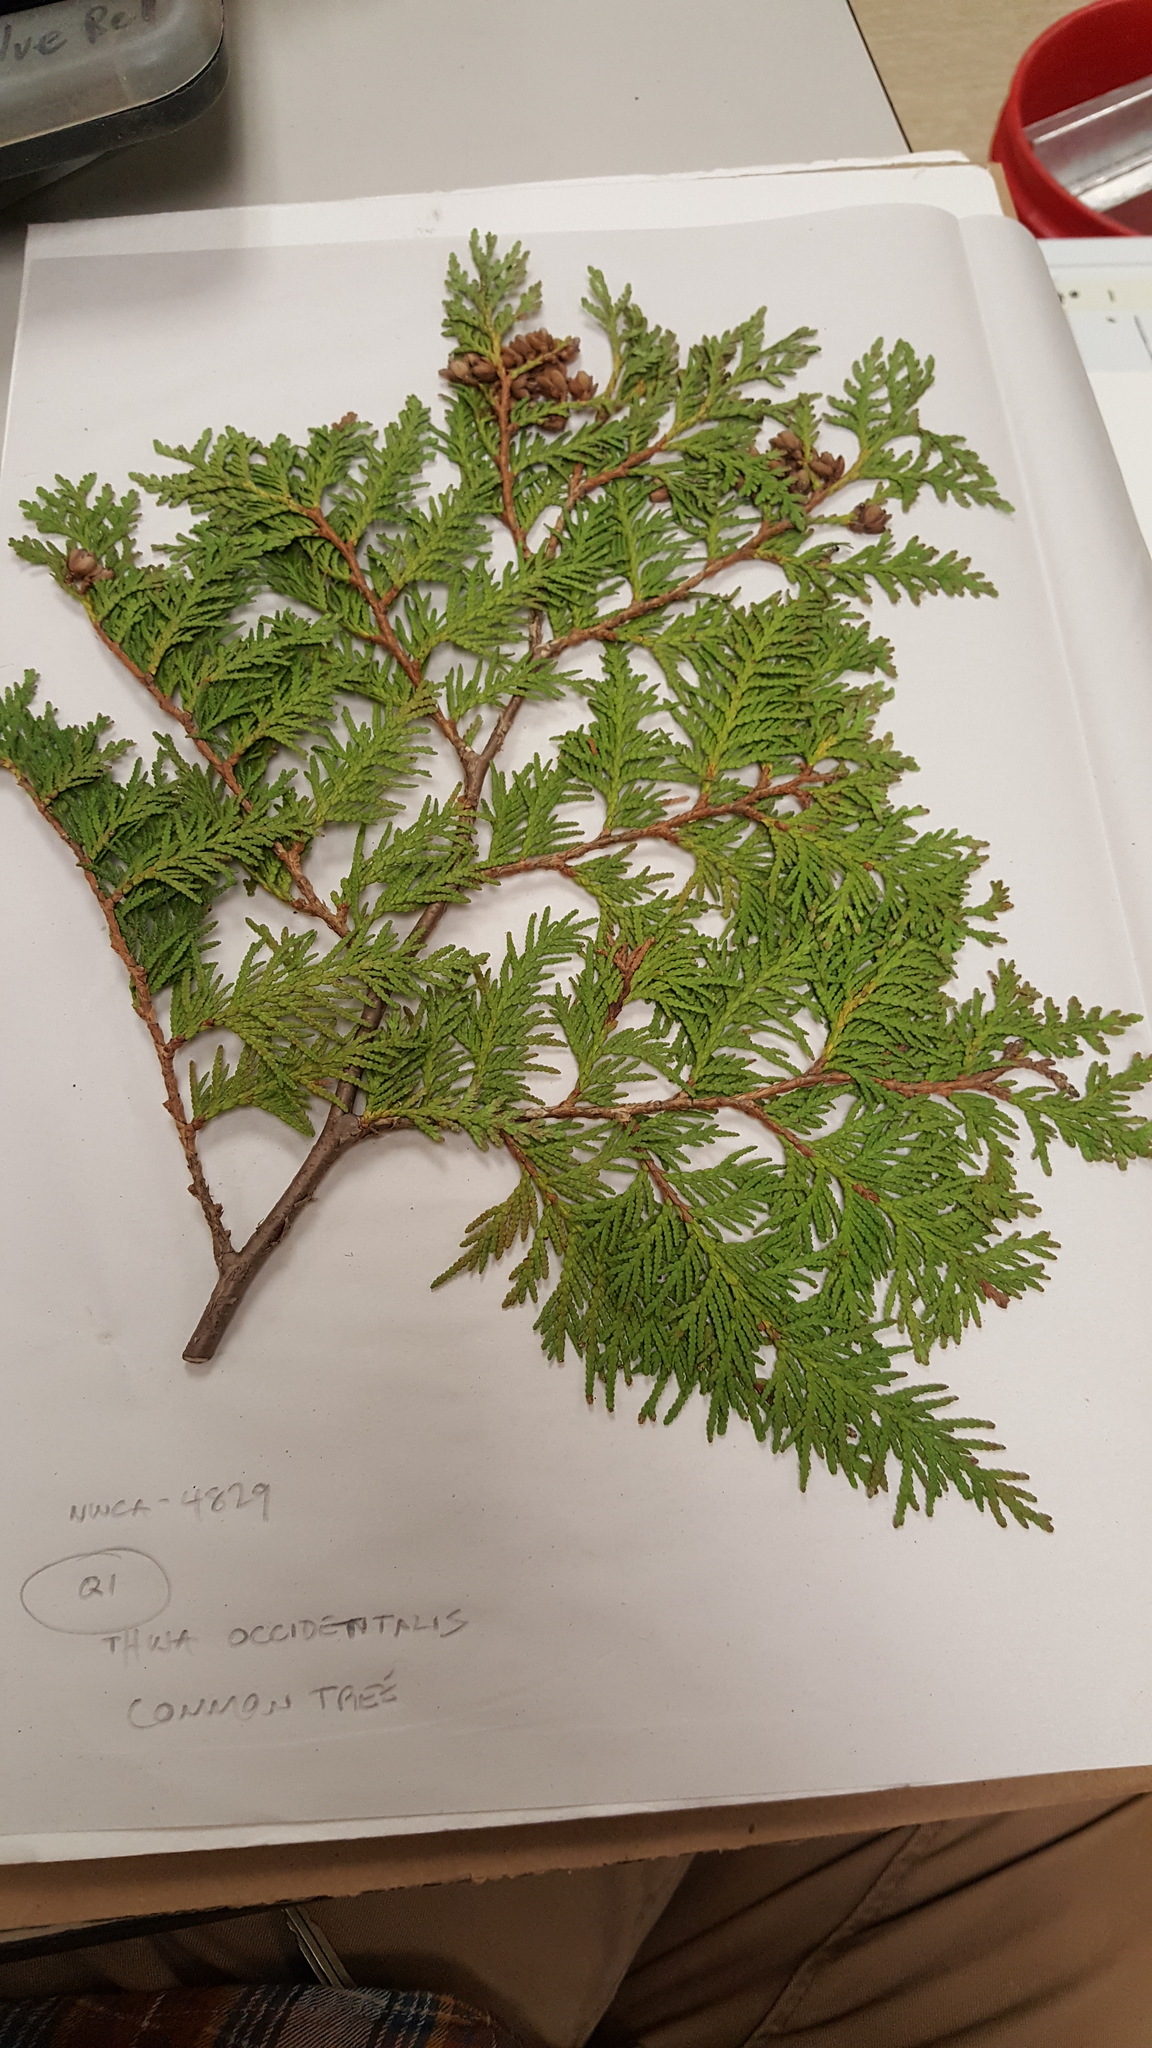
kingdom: Plantae
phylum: Tracheophyta
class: Pinopsida
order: Pinales
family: Cupressaceae
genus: Thuja
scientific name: Thuja occidentalis
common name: Northern white-cedar
